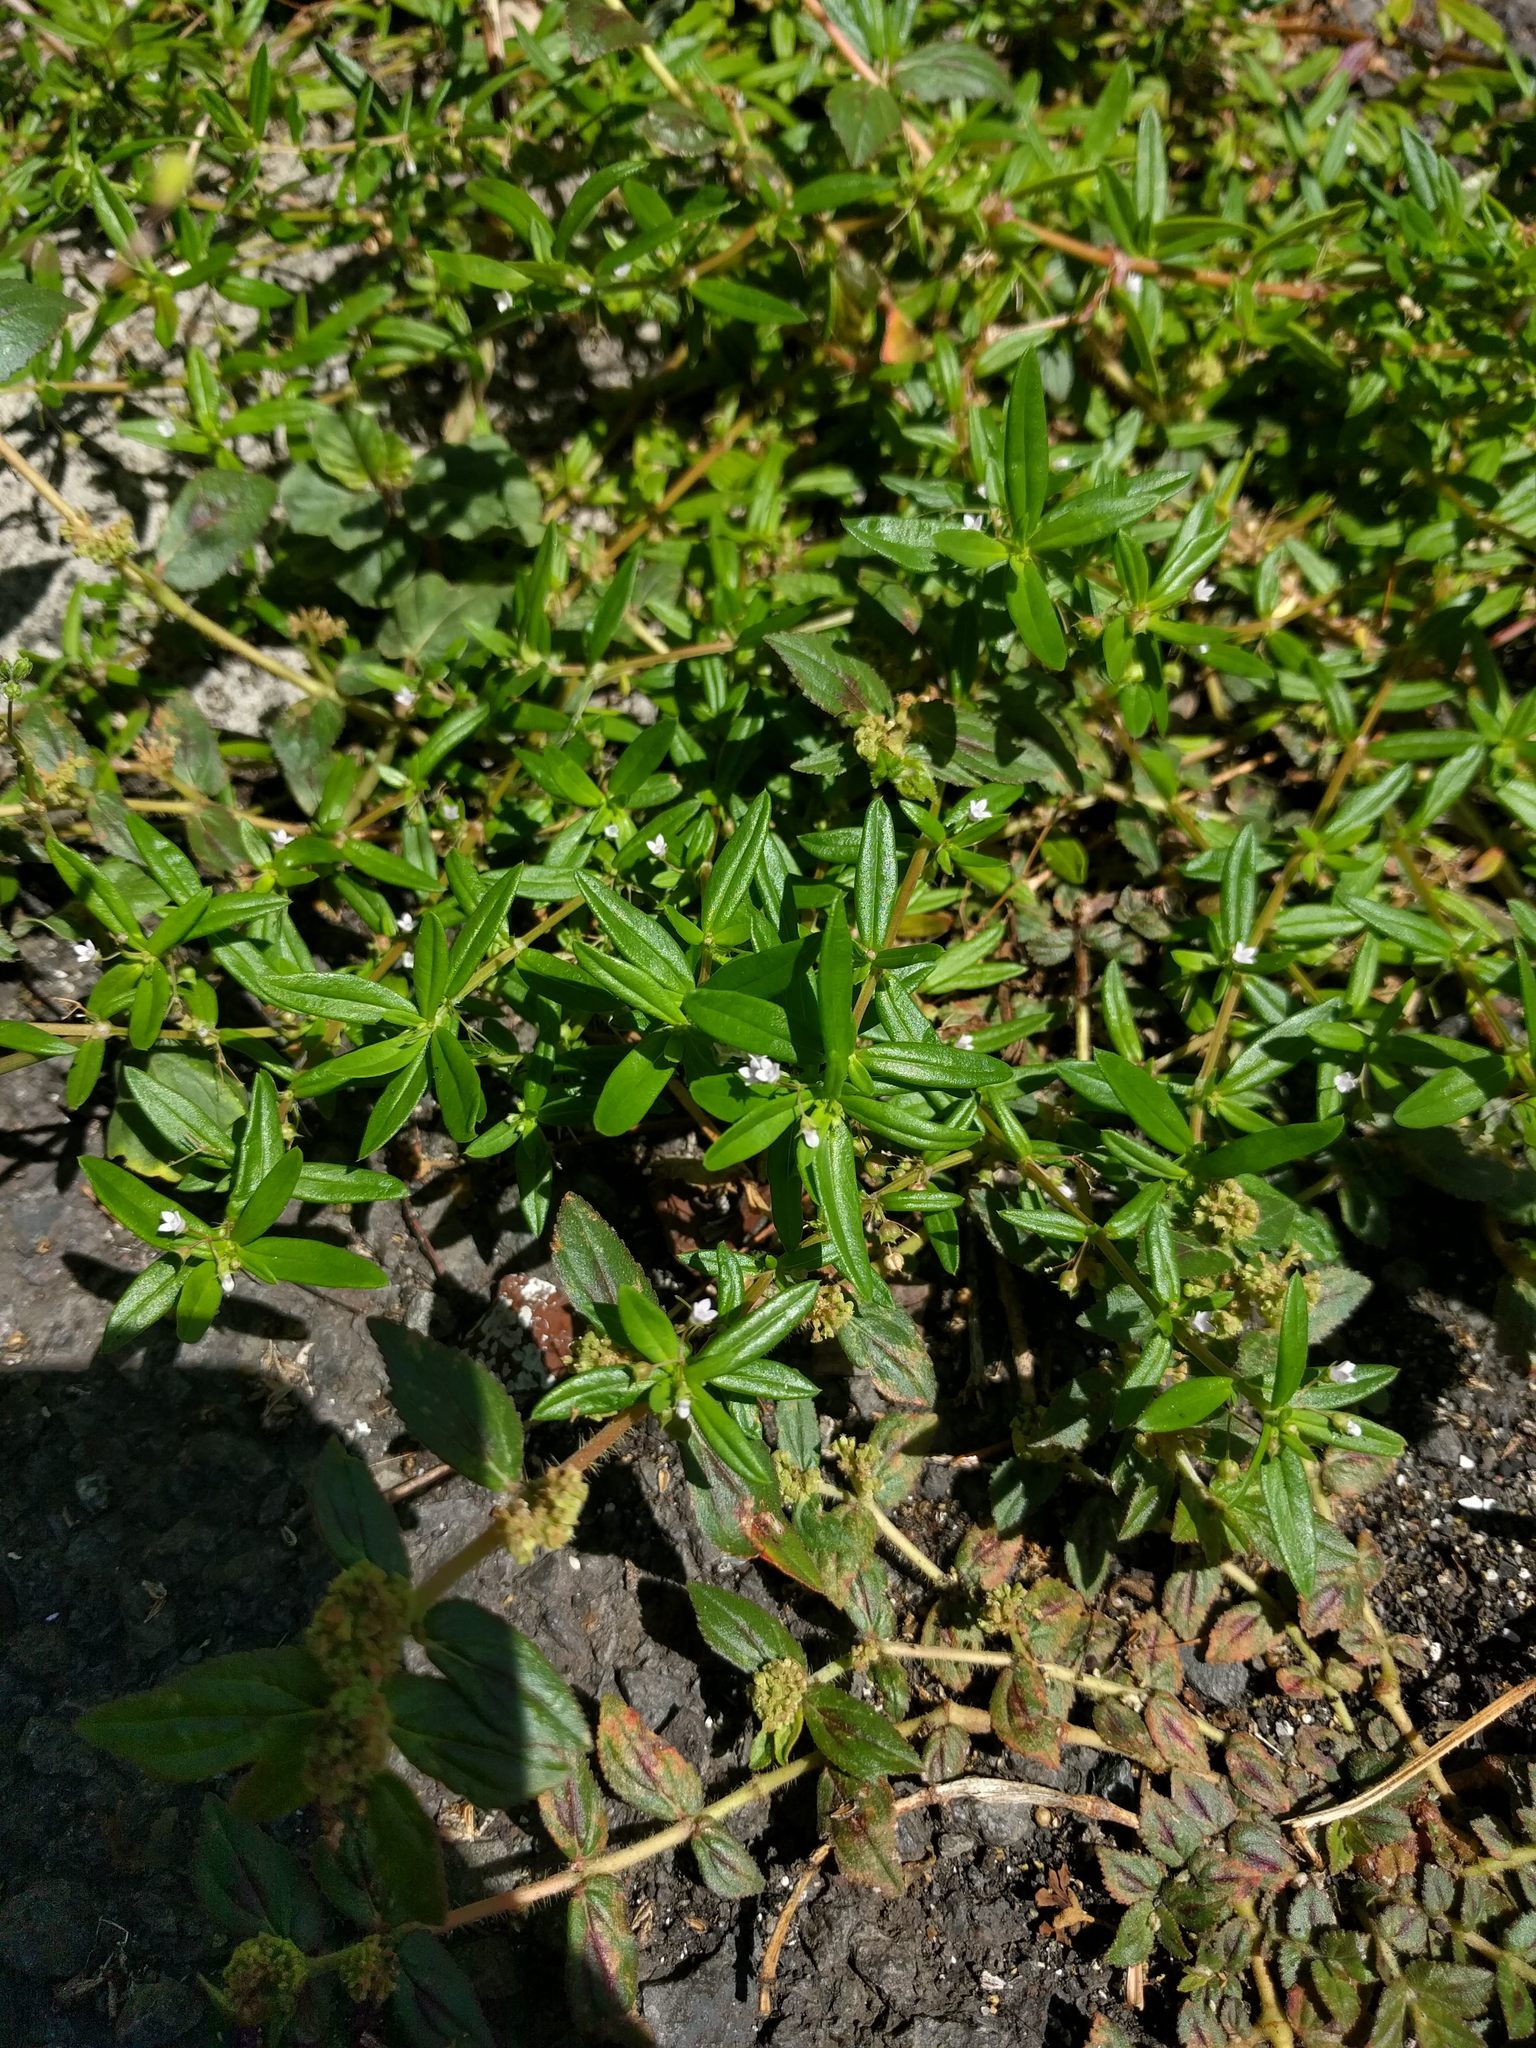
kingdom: Plantae
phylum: Tracheophyta
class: Magnoliopsida
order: Gentianales
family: Rubiaceae
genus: Oldenlandia
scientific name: Oldenlandia corymbosa
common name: Flat-top mille graines
